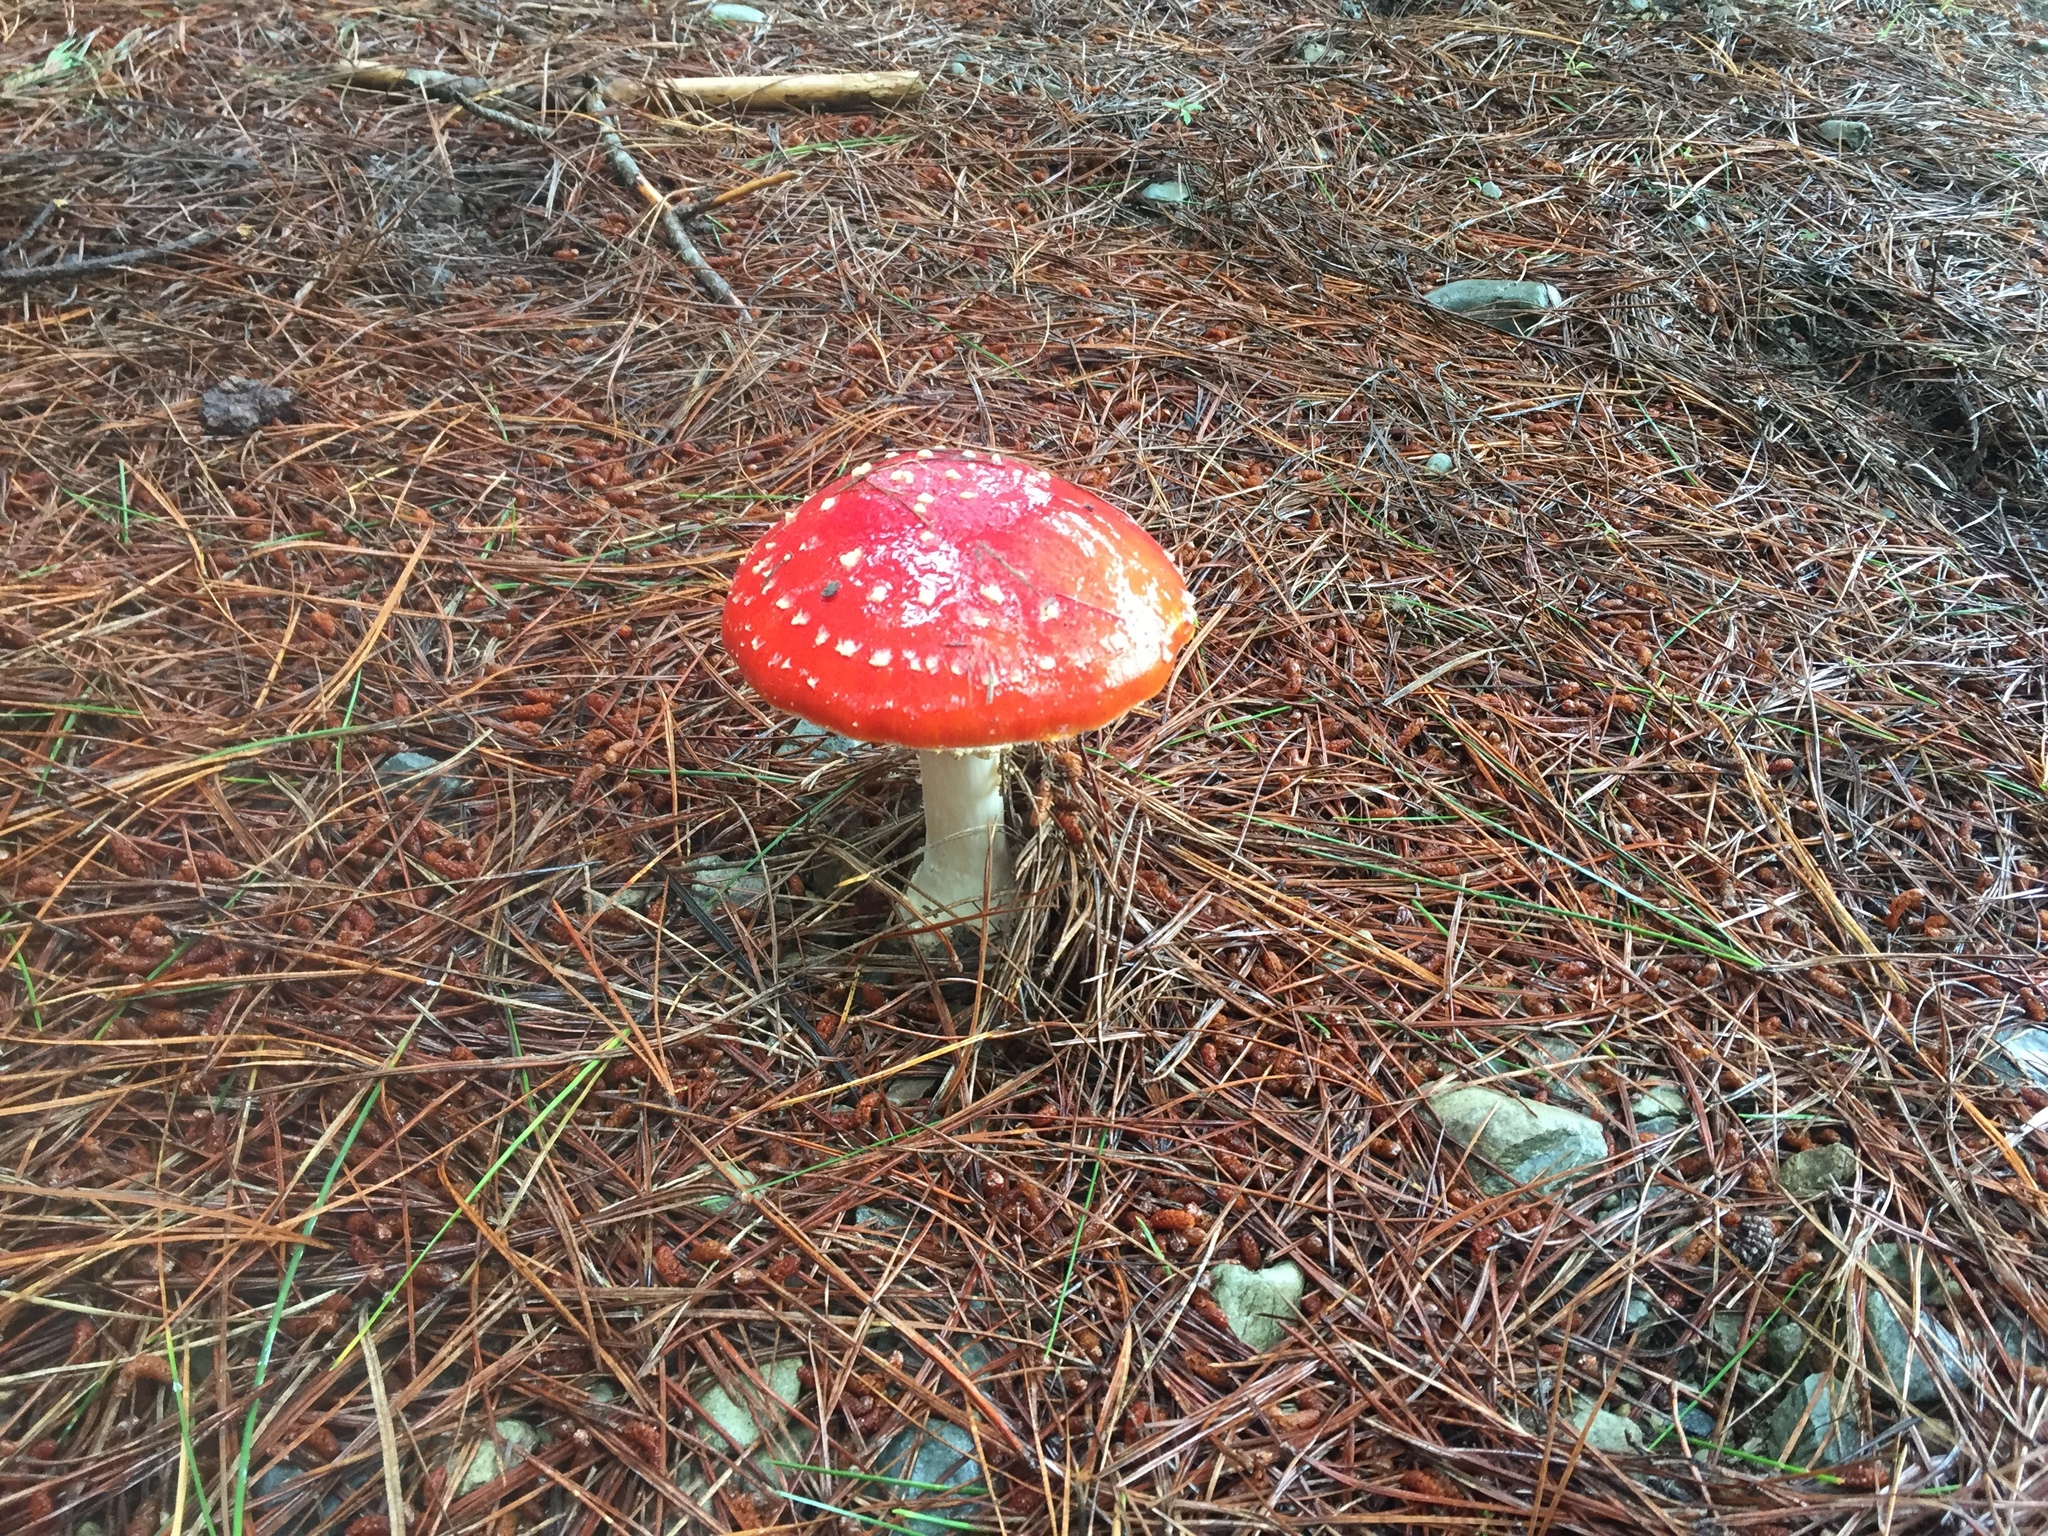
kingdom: Fungi
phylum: Basidiomycota
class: Agaricomycetes
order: Agaricales
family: Amanitaceae
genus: Amanita
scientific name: Amanita muscaria
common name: Fly agaric
